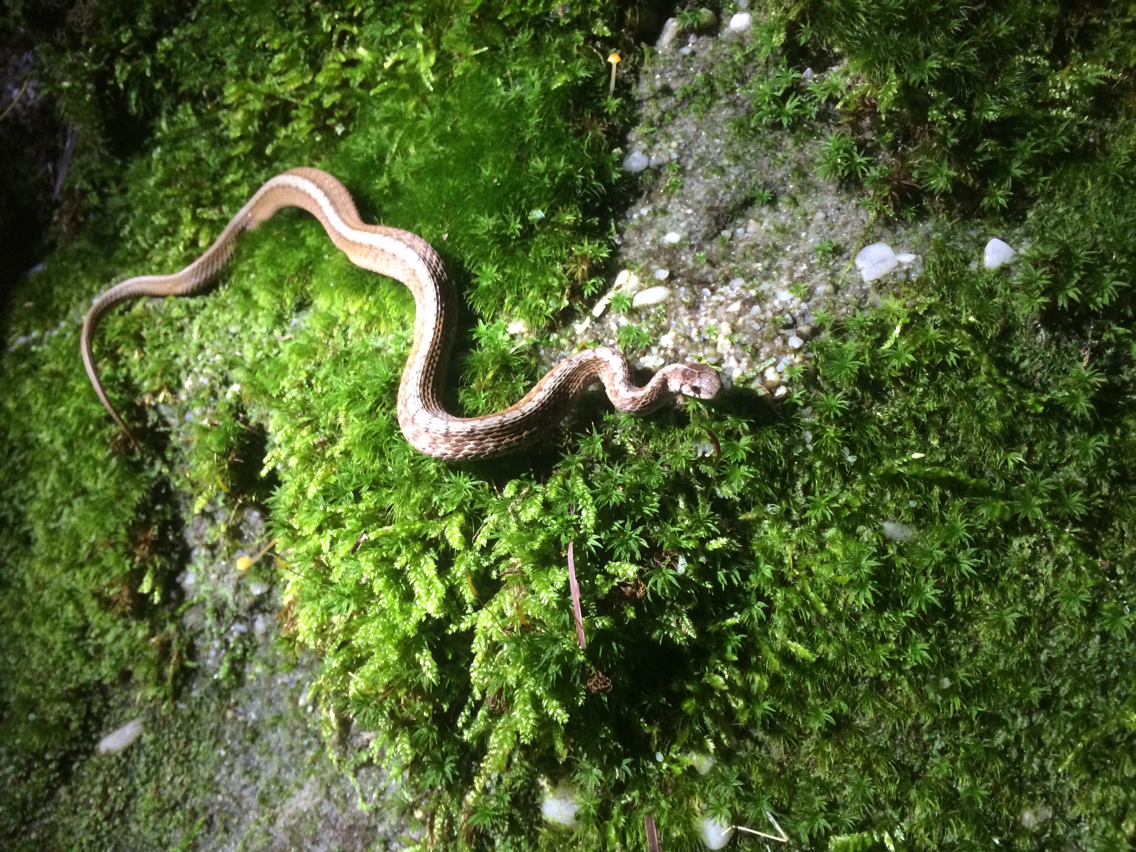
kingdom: Animalia
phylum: Chordata
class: Squamata
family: Colubridae
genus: Storeria
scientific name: Storeria dekayi
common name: (dekay’s) brown snake
